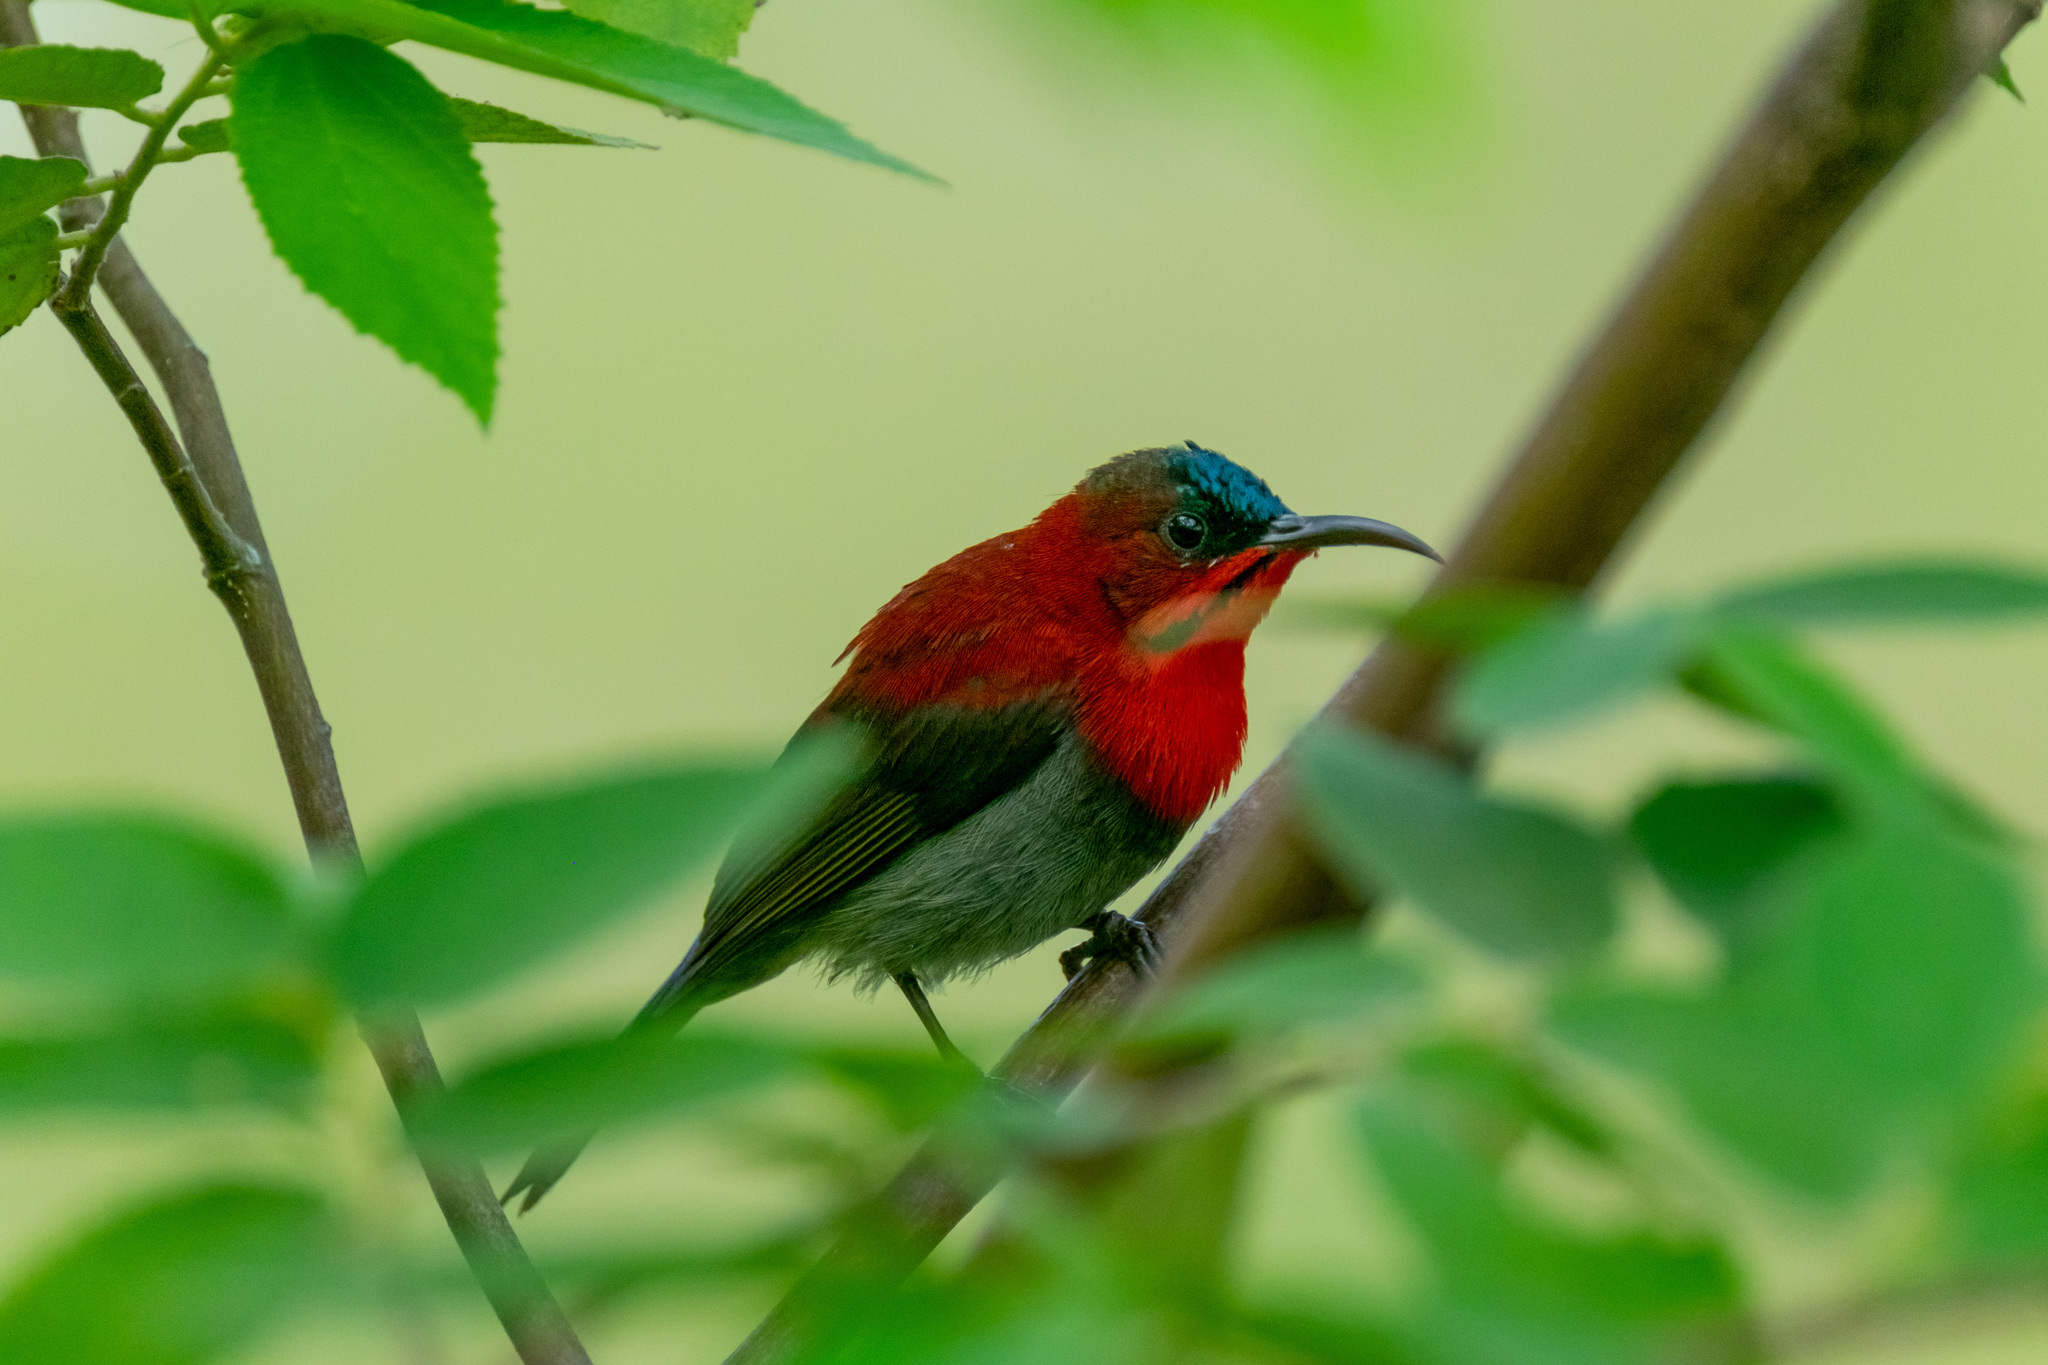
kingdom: Animalia
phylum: Chordata
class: Aves
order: Passeriformes
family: Nectariniidae
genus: Aethopyga
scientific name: Aethopyga siparaja
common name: Crimson sunbird
